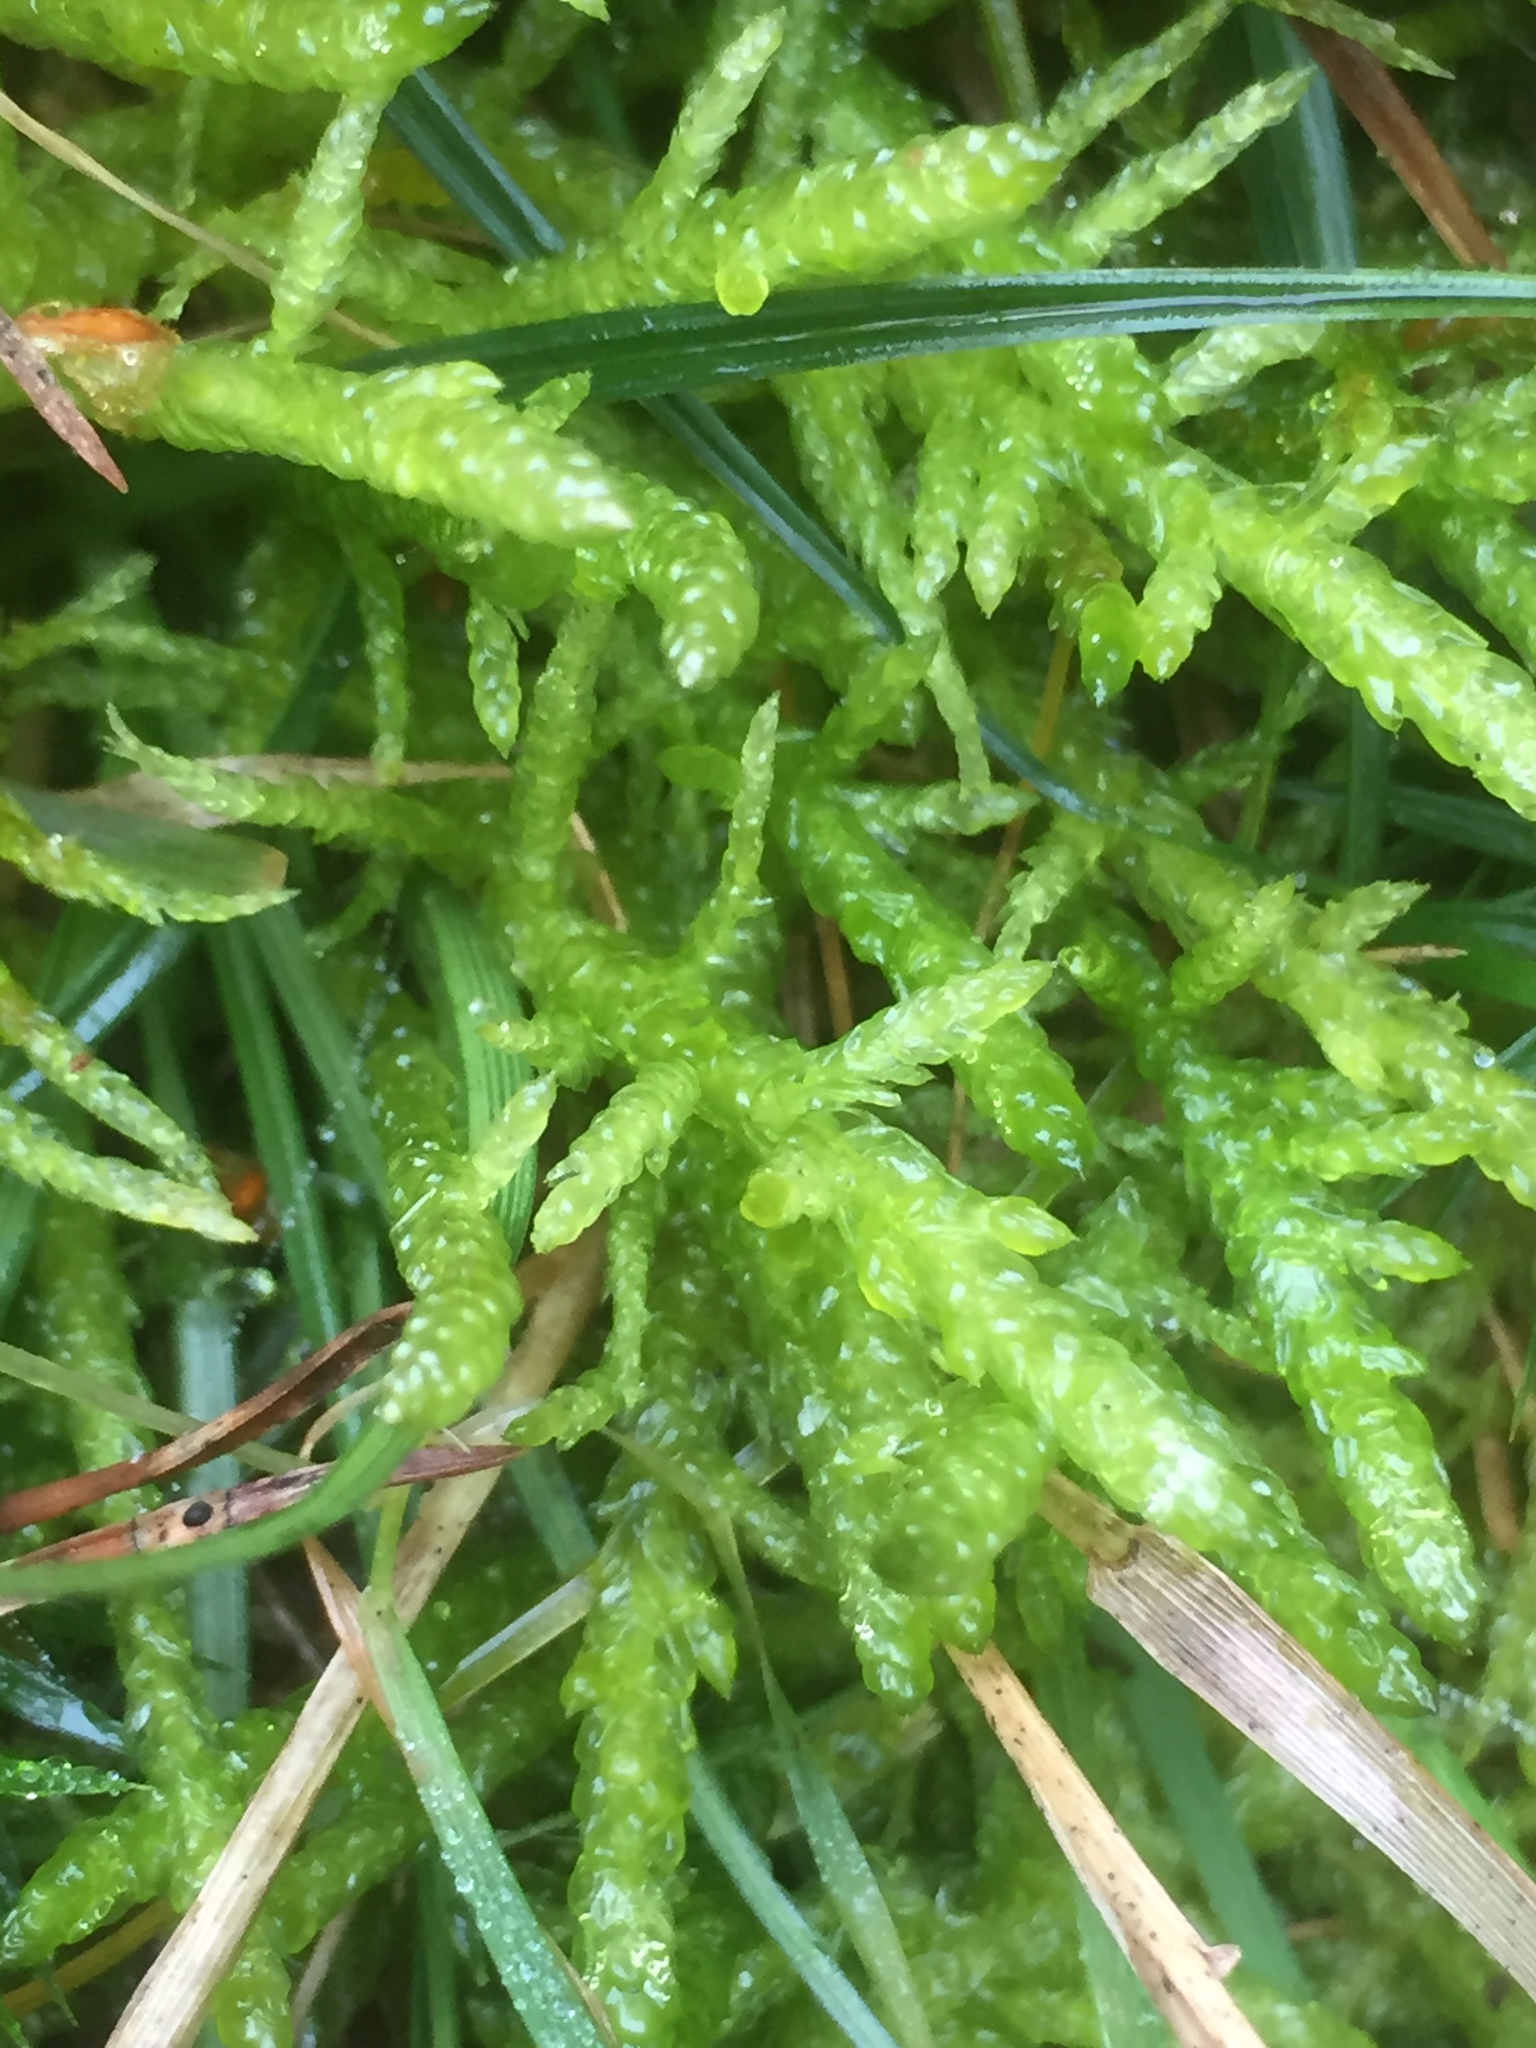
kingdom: Plantae
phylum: Bryophyta
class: Bryopsida
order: Hypnales
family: Brachytheciaceae
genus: Pseudoscleropodium
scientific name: Pseudoscleropodium purum
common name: Neat feather-moss
